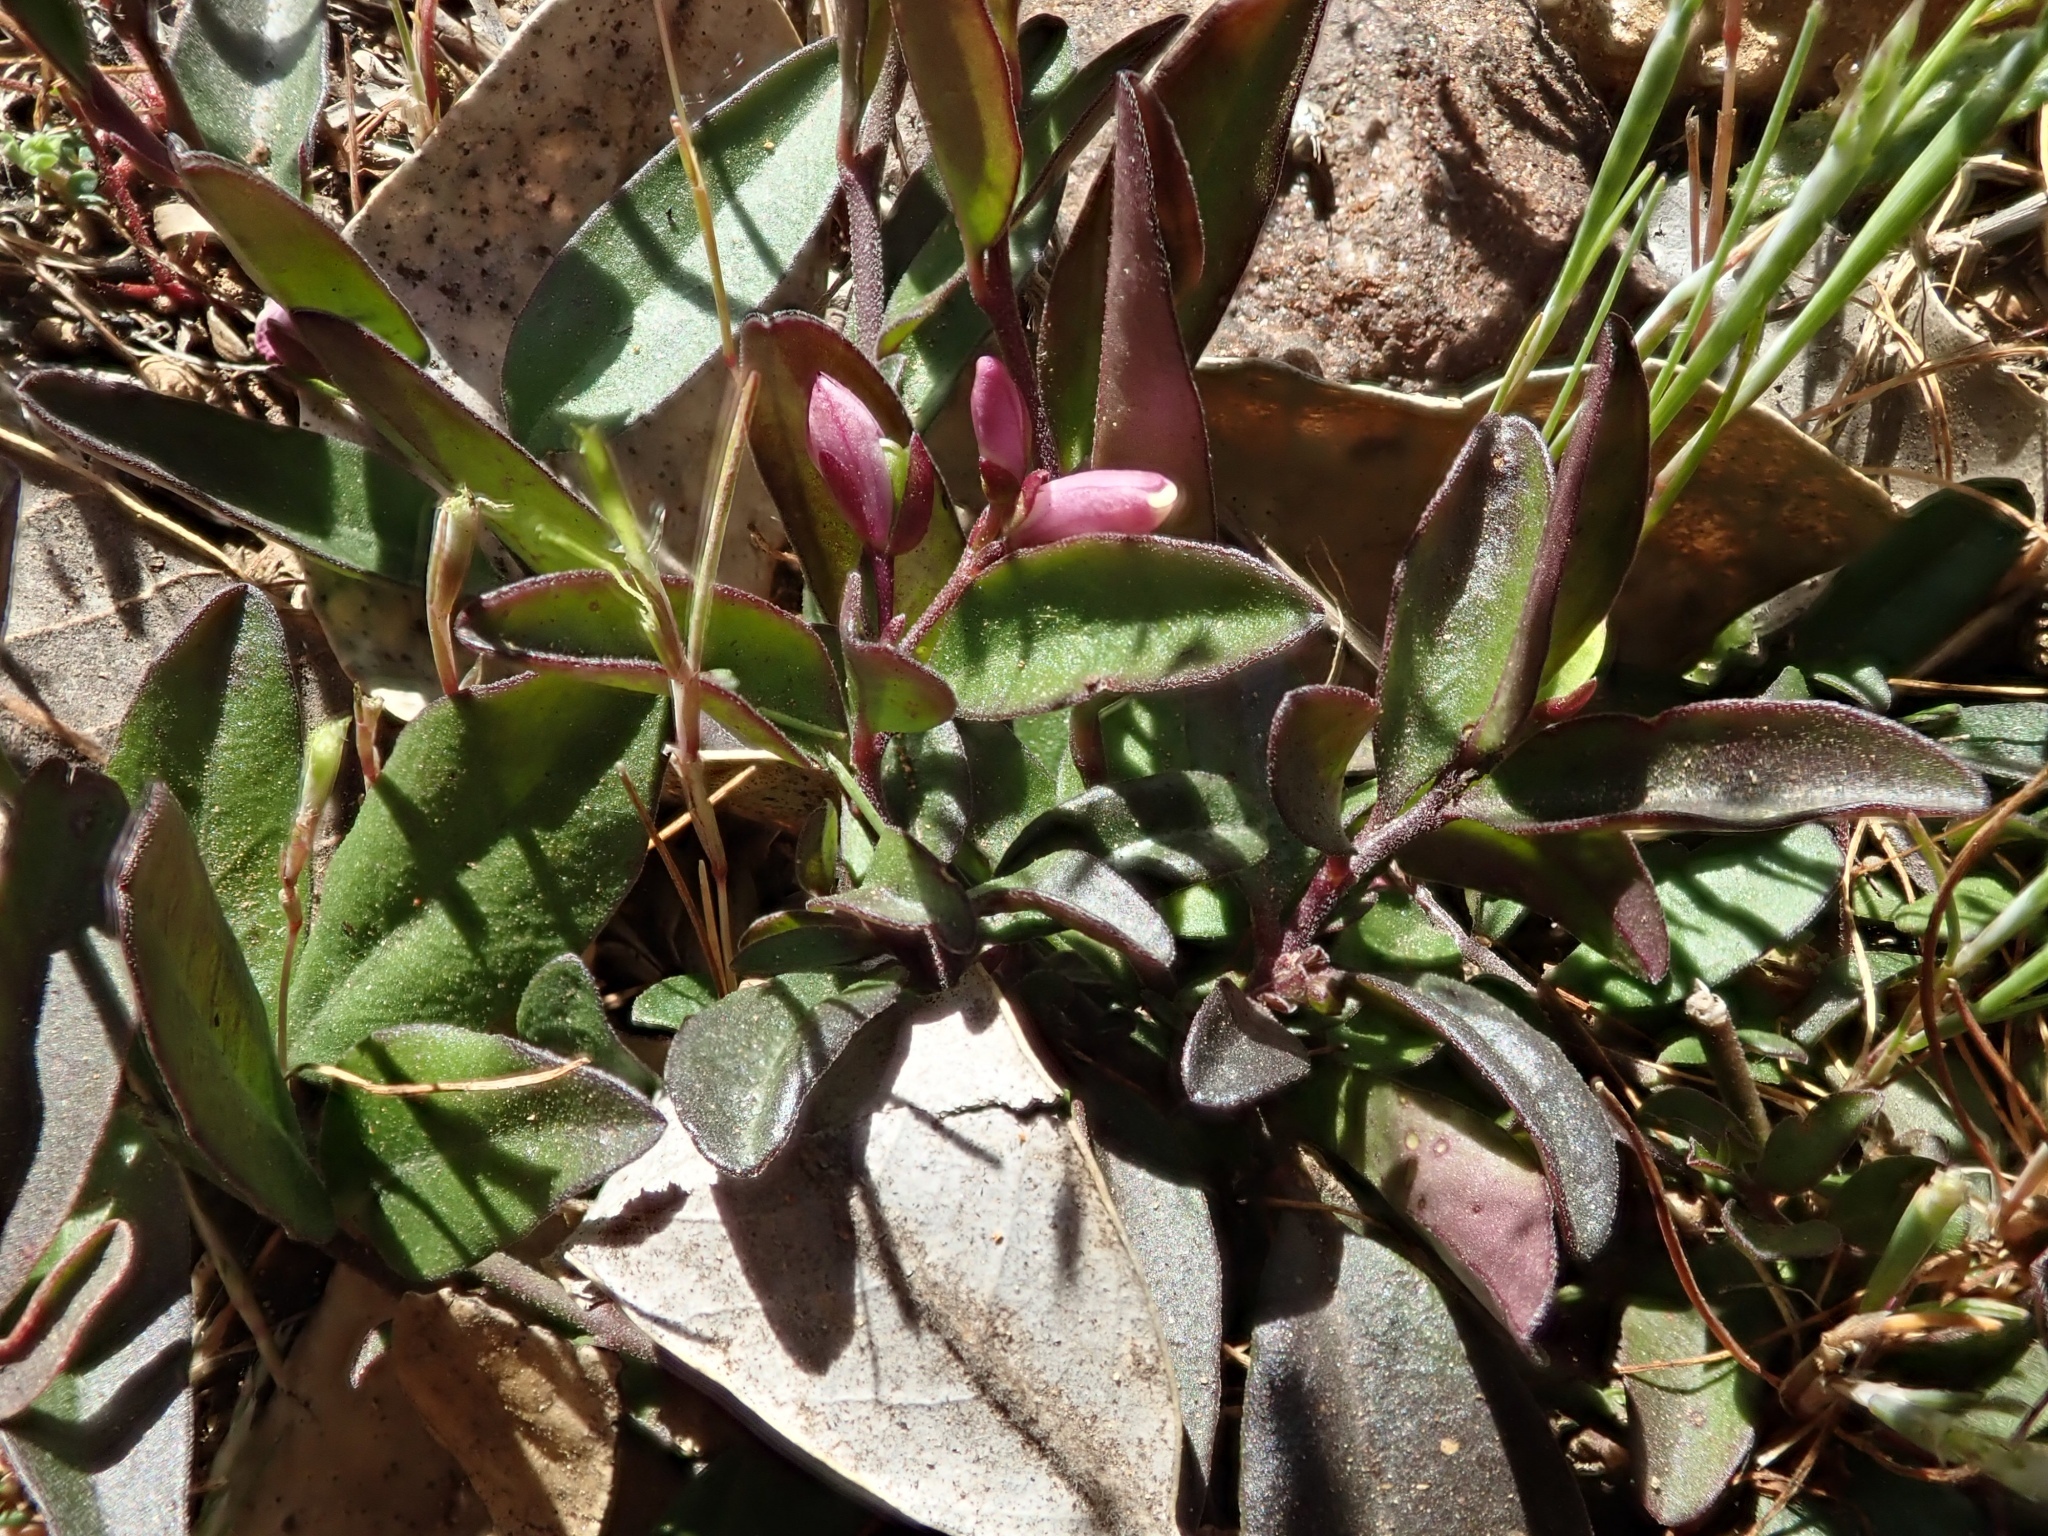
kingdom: Plantae
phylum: Tracheophyta
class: Magnoliopsida
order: Fabales
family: Polygalaceae
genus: Rhinotropis
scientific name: Rhinotropis californica
